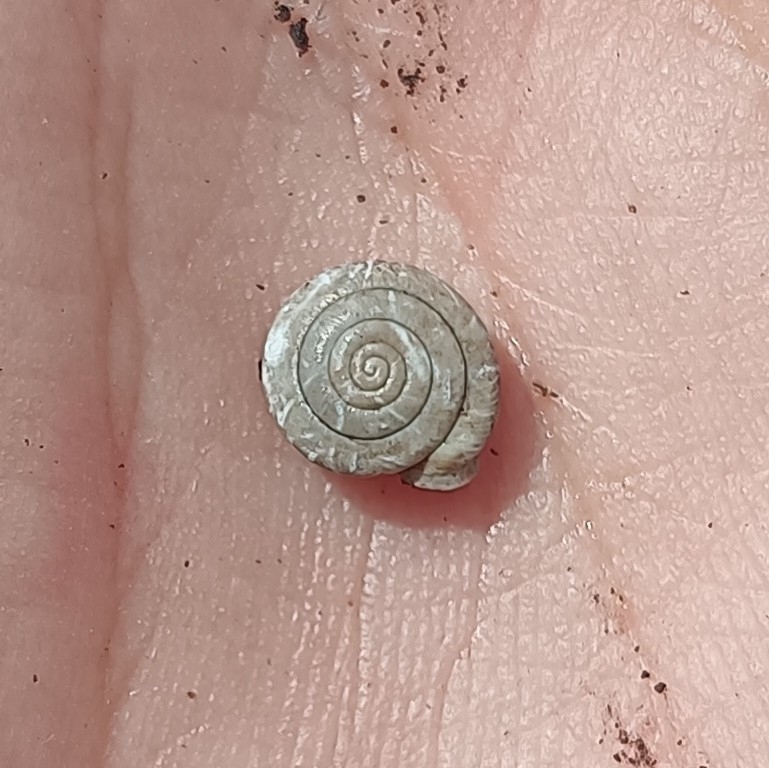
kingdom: Animalia
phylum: Mollusca
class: Gastropoda
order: Stylommatophora
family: Polygyridae
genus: Polygyra
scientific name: Polygyra cereolus
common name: Southern flatcone snail
